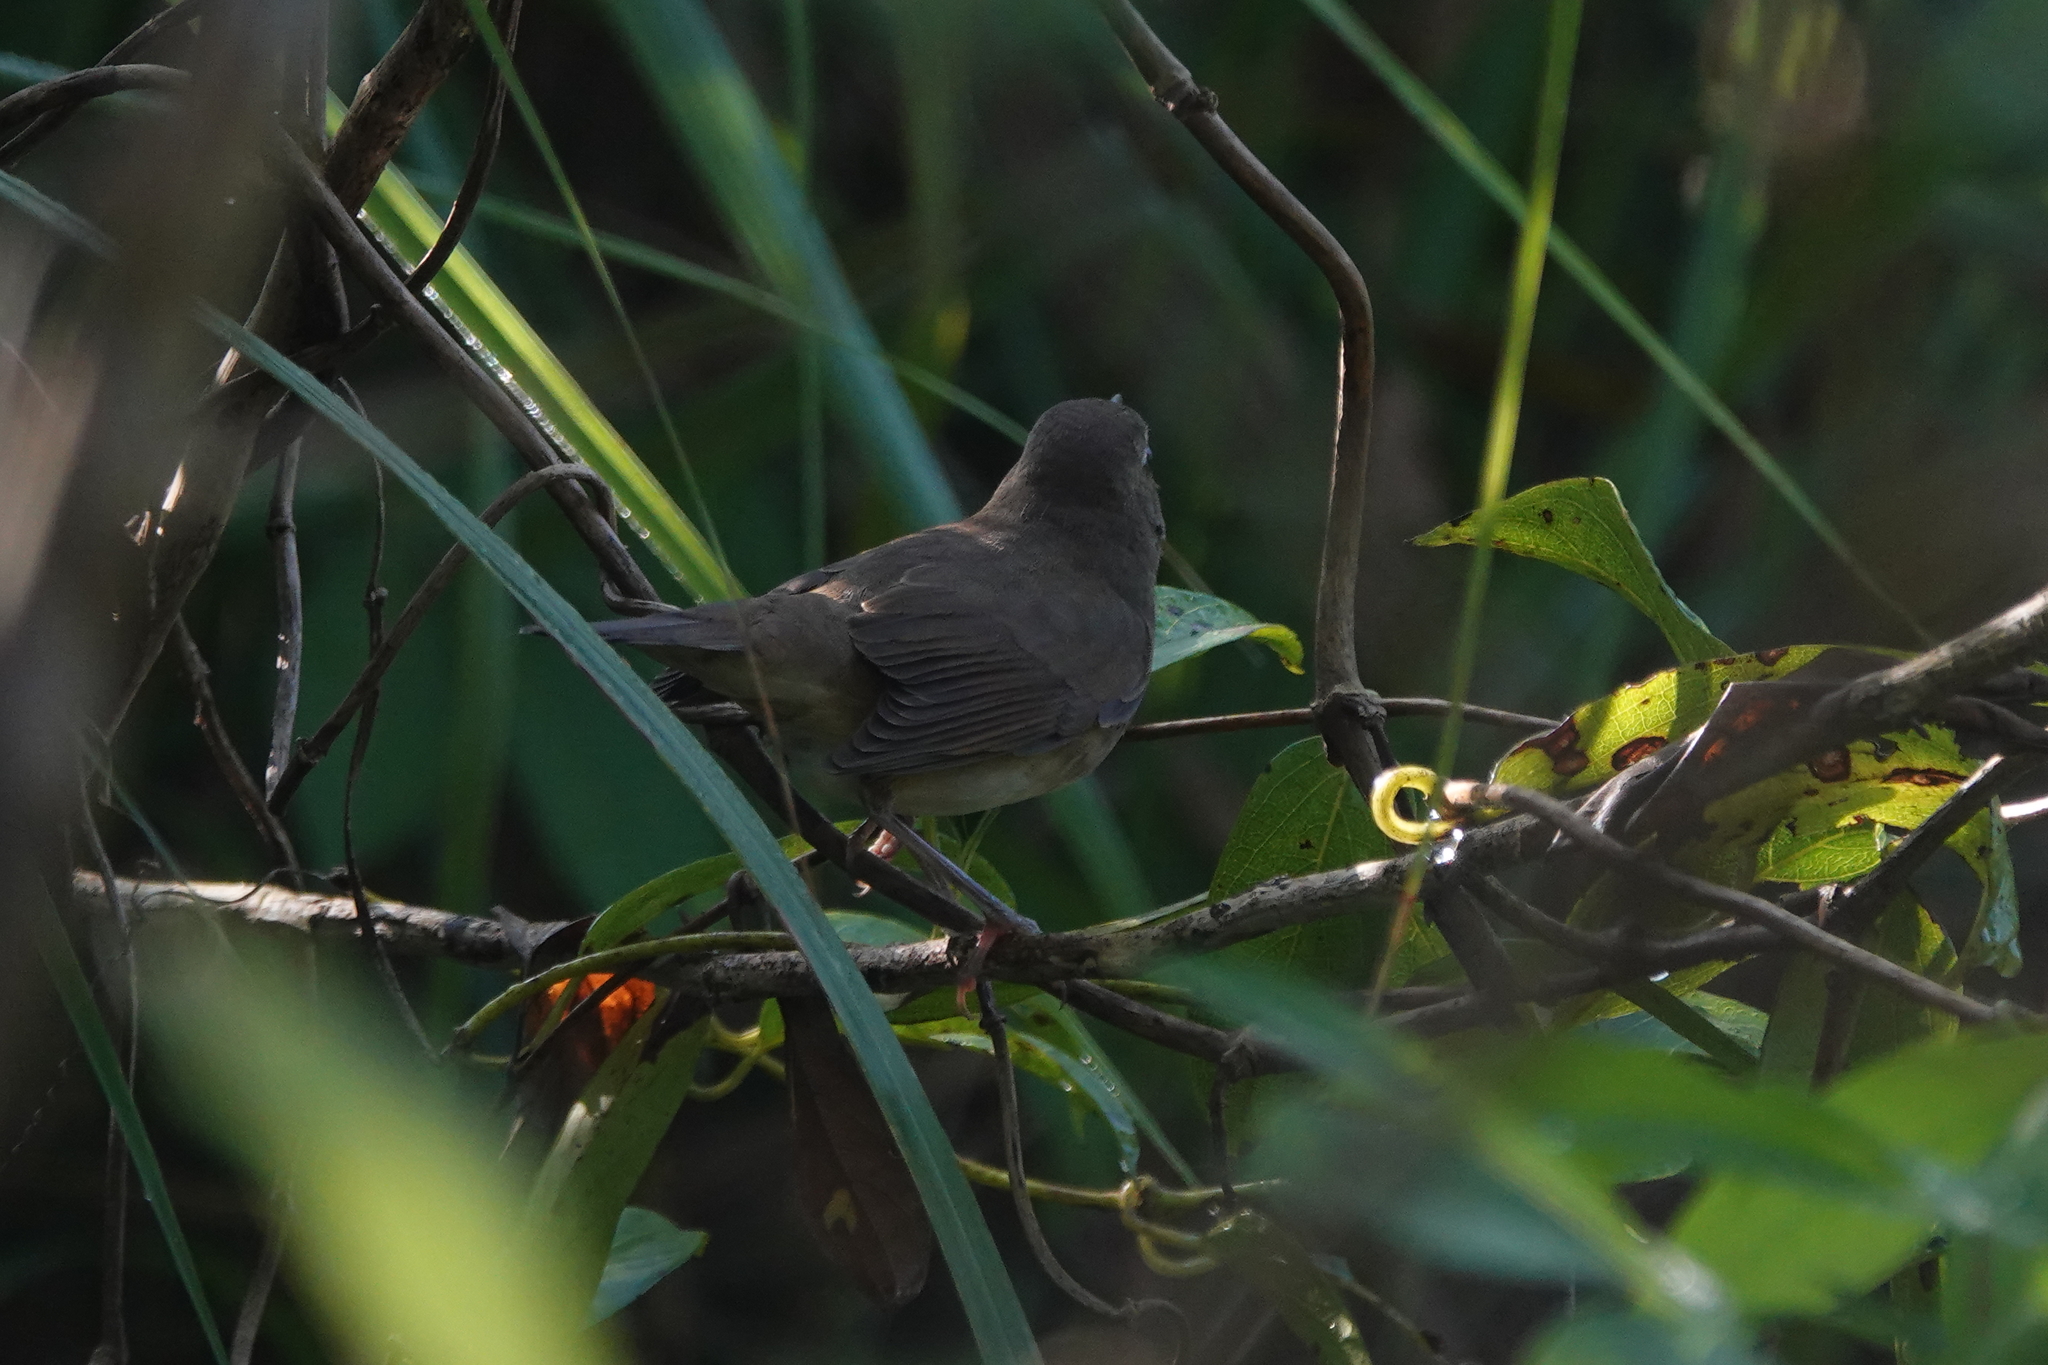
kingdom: Animalia
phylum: Chordata
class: Aves
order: Passeriformes
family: Muscicapidae
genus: Luscinia
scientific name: Luscinia calliope
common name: Siberian rubythroat
